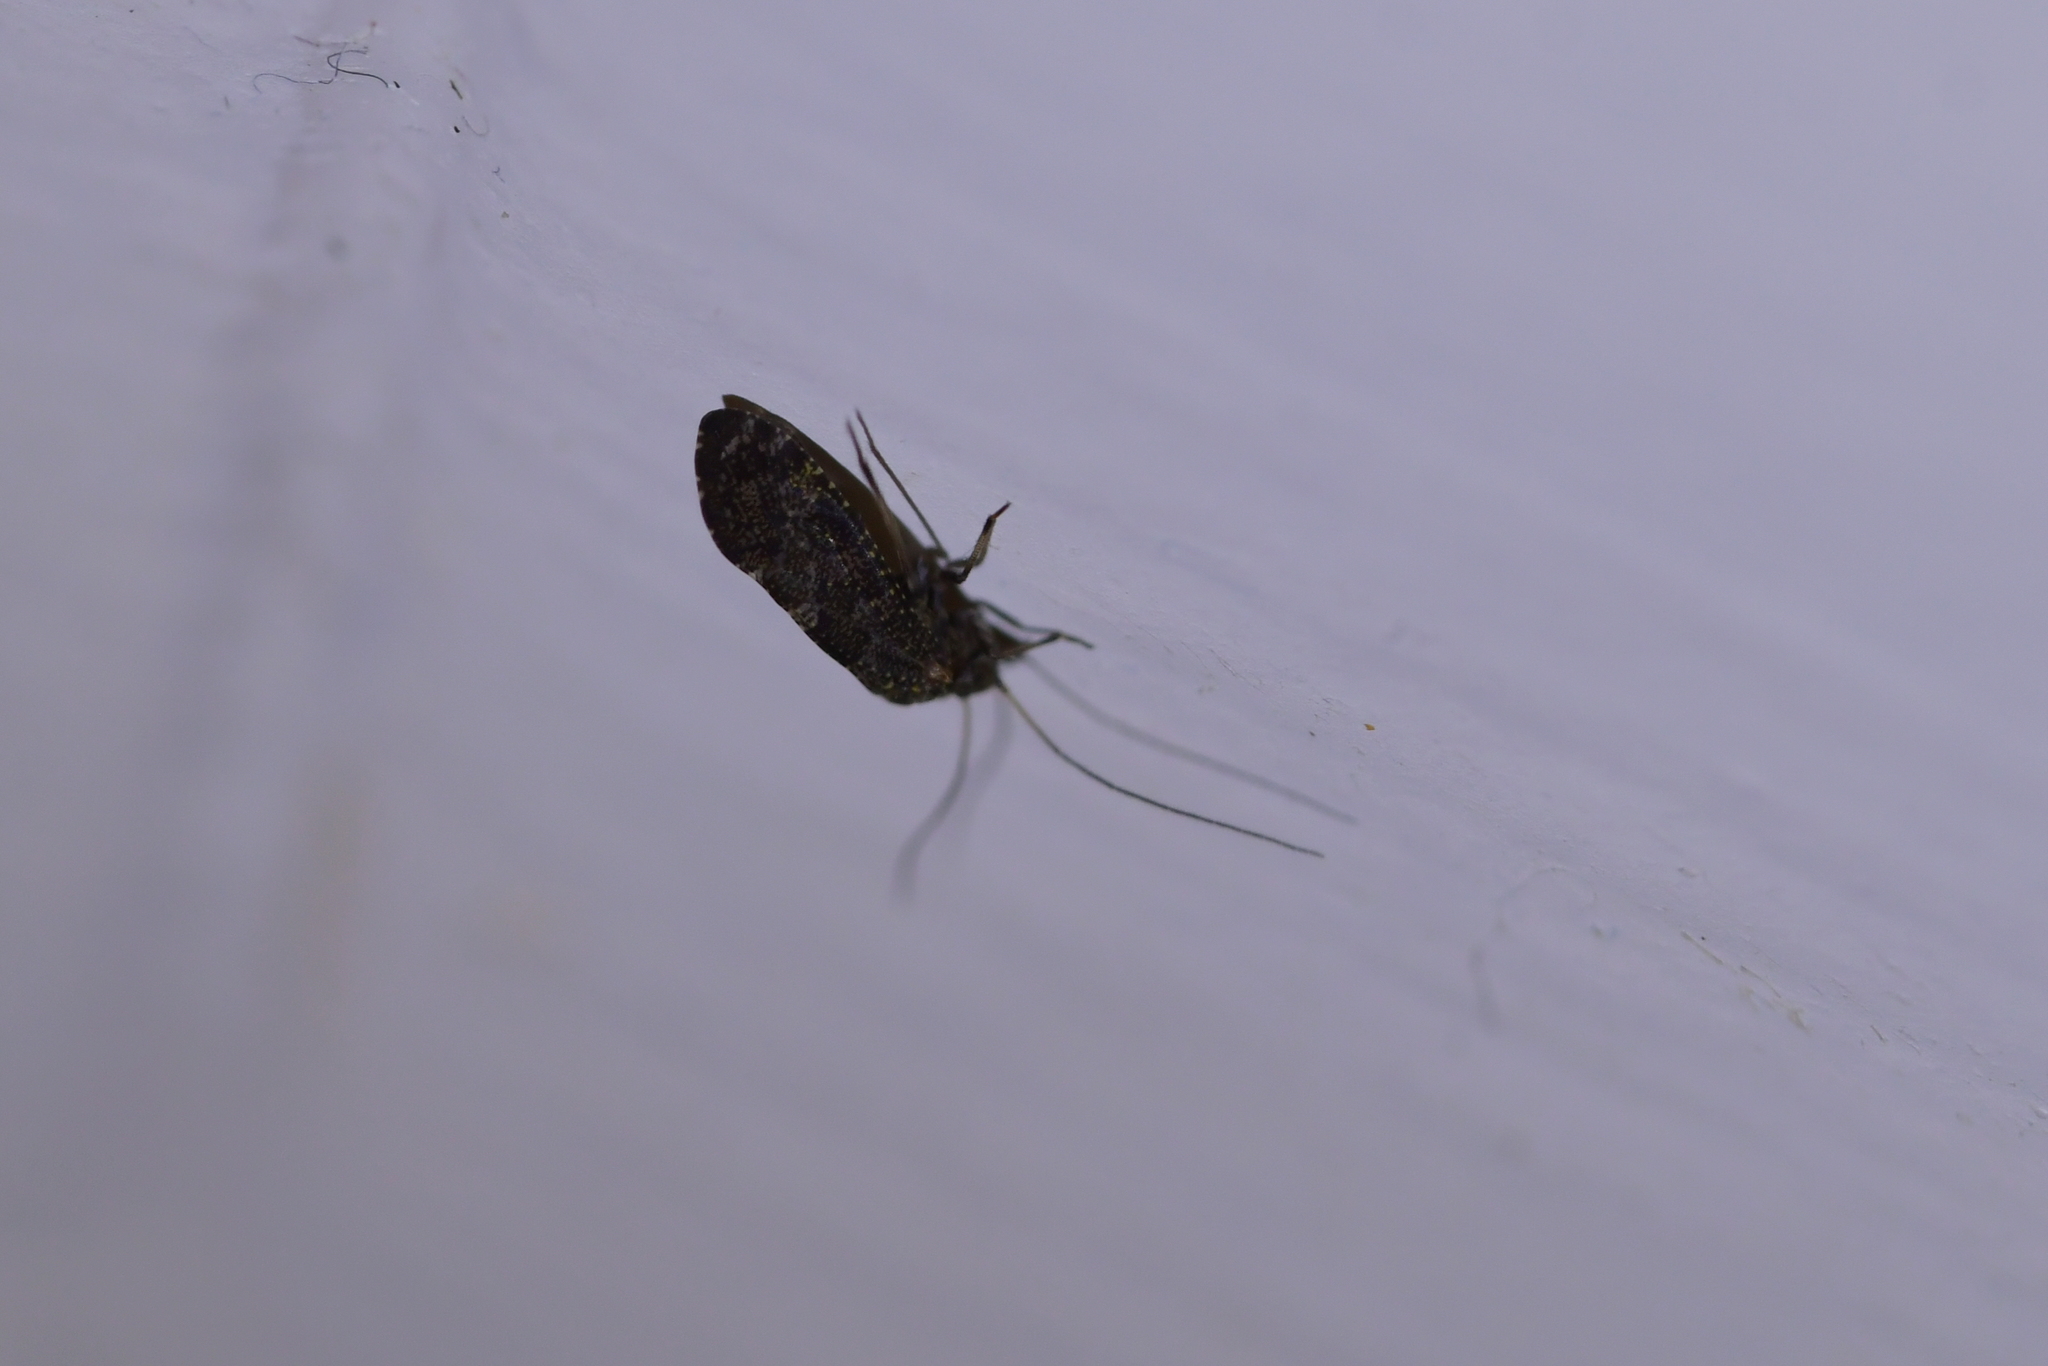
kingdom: Animalia
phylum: Arthropoda
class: Insecta
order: Psocodea
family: Myopsocidae
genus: Nimbopsocus
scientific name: Nimbopsocus australis
